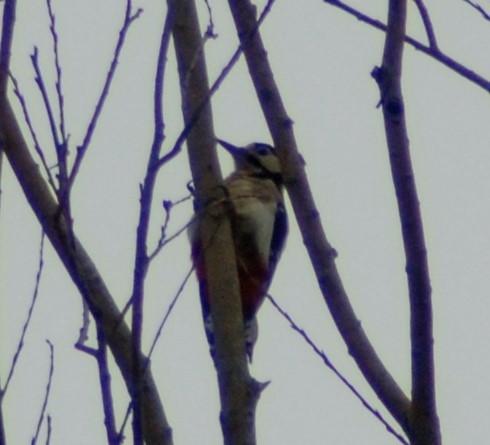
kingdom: Animalia
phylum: Chordata
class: Aves
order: Piciformes
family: Picidae
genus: Dendrocopos
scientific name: Dendrocopos major
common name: Great spotted woodpecker
